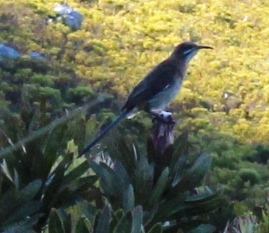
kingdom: Animalia
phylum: Chordata
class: Aves
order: Passeriformes
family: Promeropidae
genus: Promerops
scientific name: Promerops cafer
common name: Cape sugarbird
